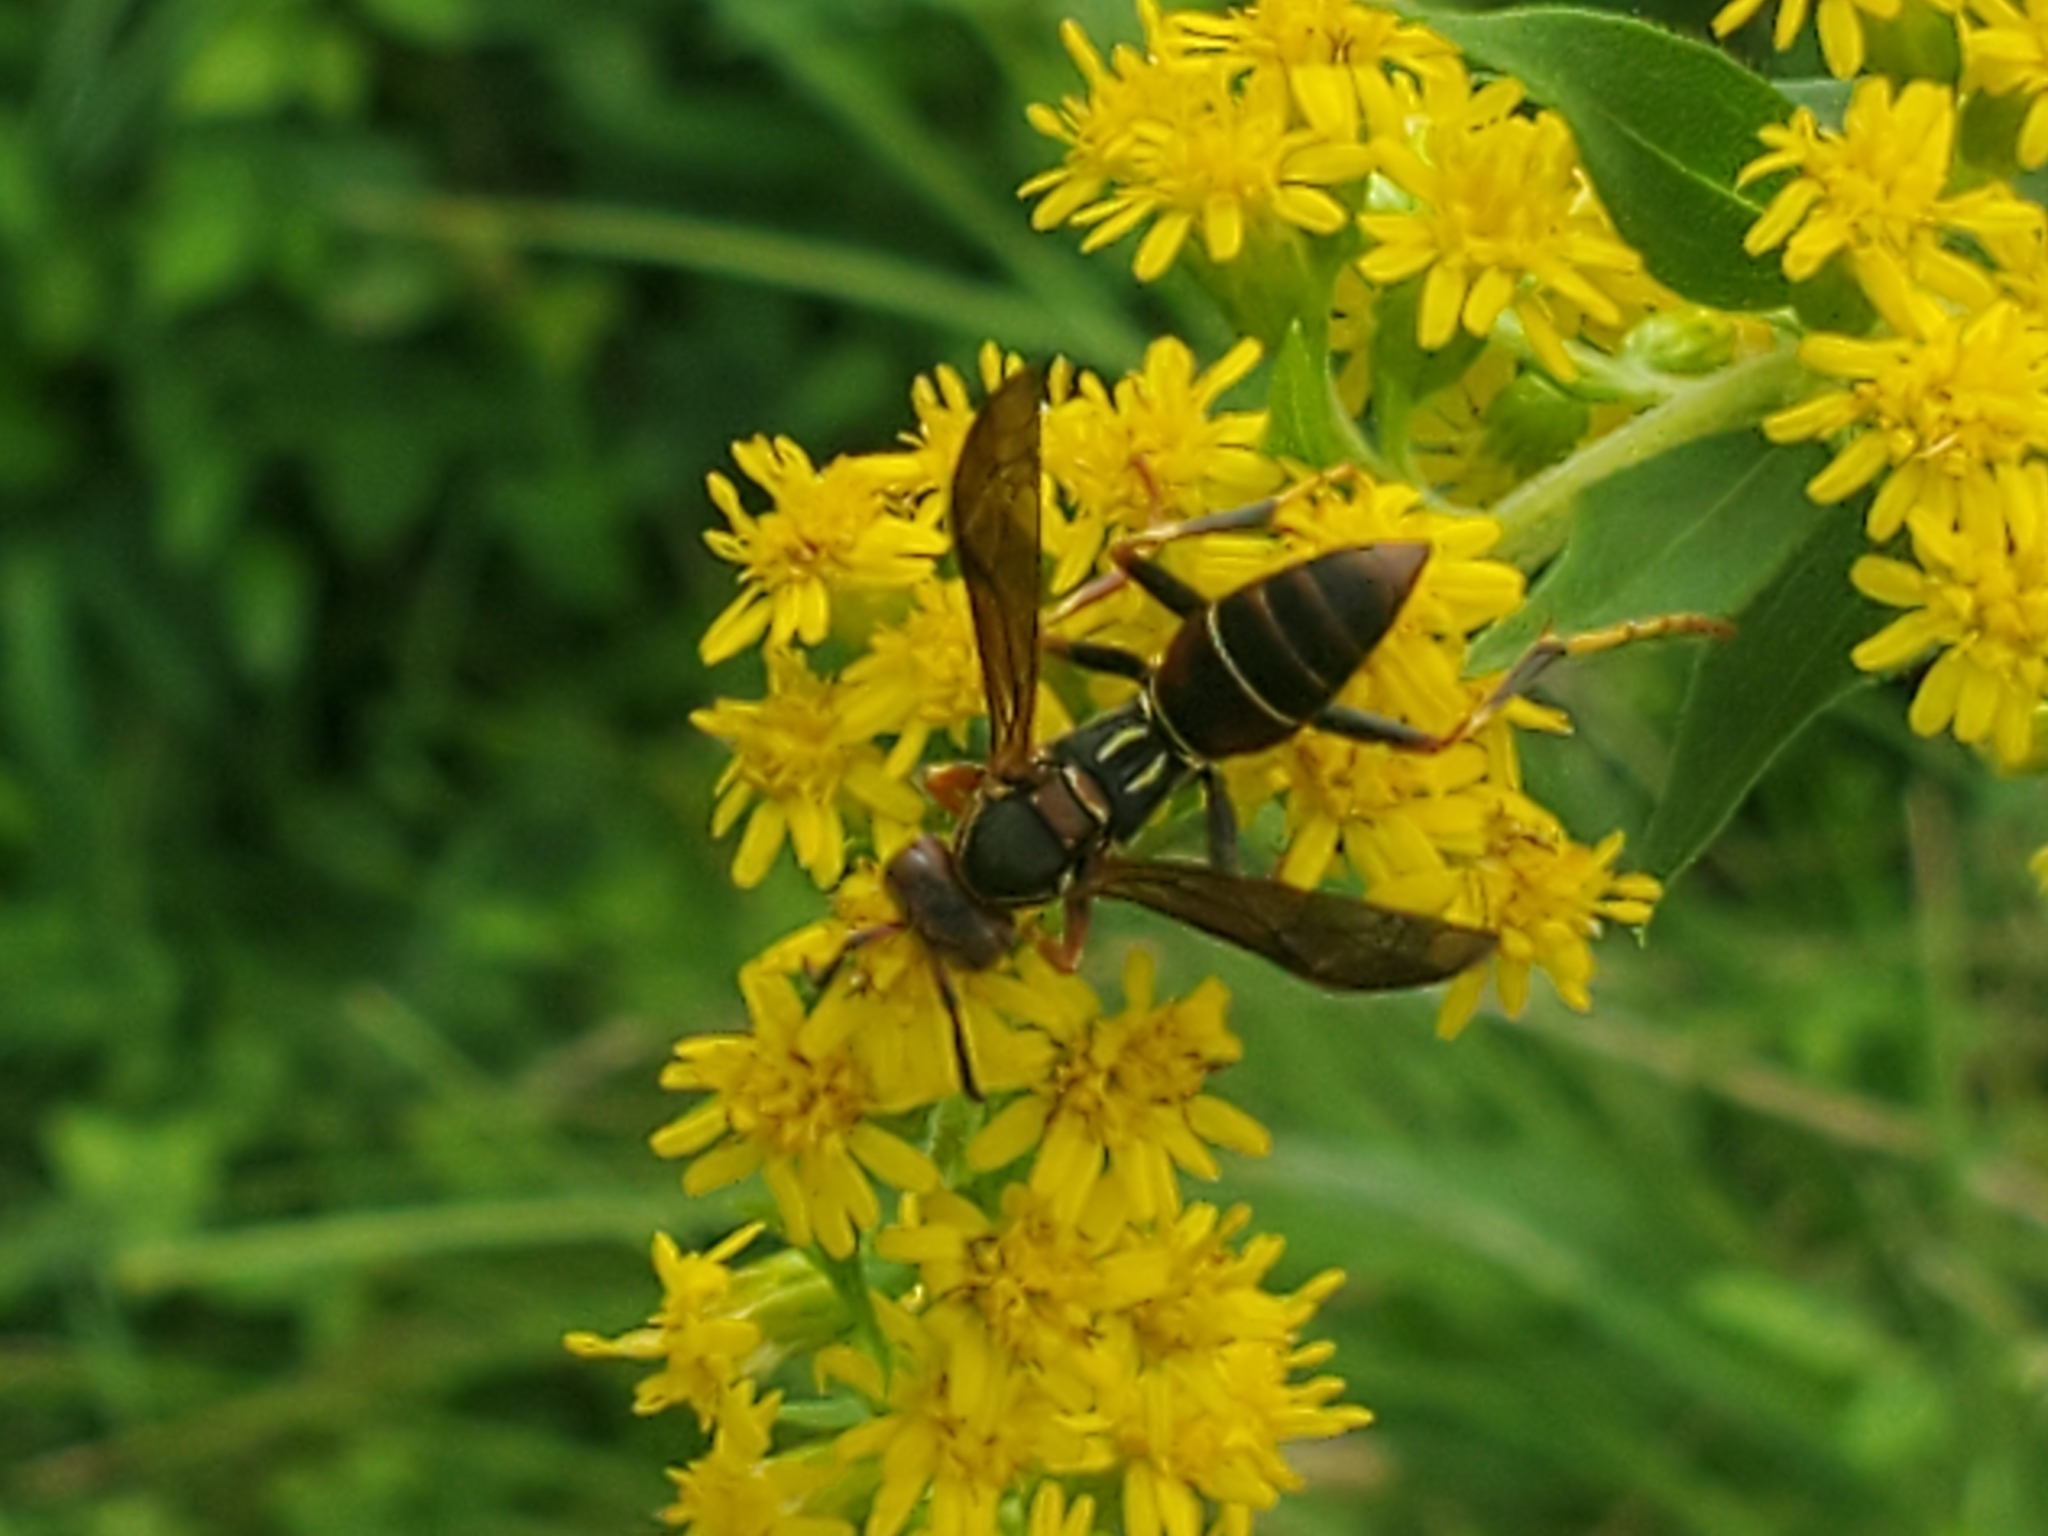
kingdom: Animalia
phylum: Arthropoda
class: Insecta
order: Hymenoptera
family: Eumenidae
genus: Polistes
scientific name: Polistes fuscatus
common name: Dark paper wasp
